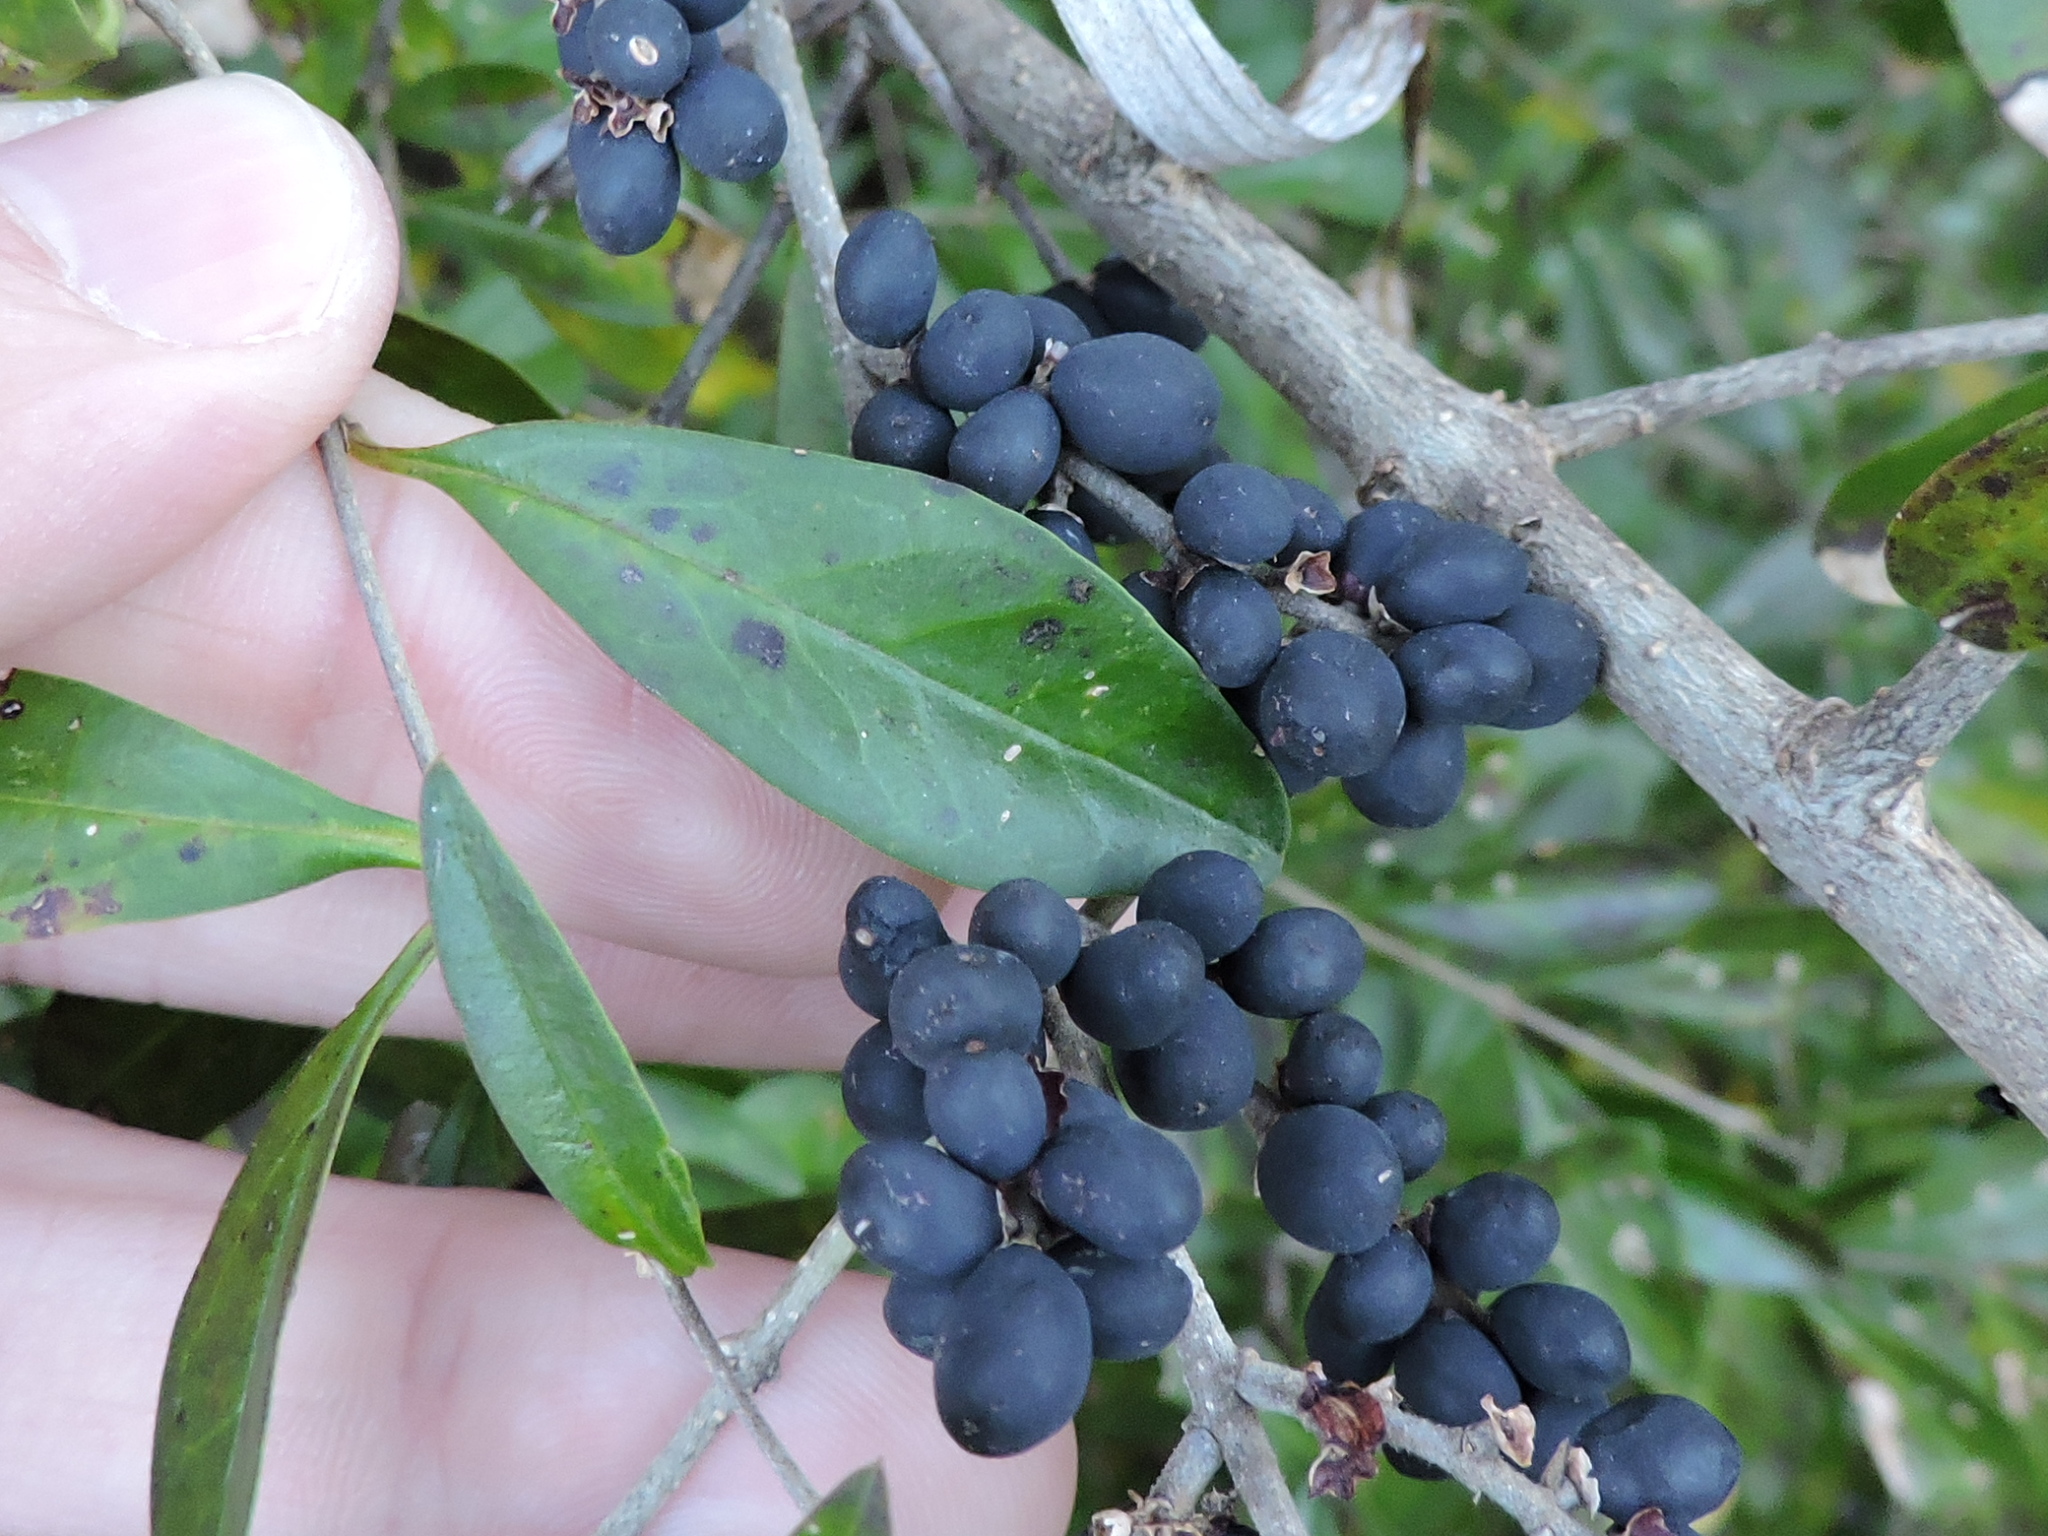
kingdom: Plantae
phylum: Tracheophyta
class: Magnoliopsida
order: Lamiales
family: Oleaceae
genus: Ligustrum
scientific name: Ligustrum quihoui
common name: Waxyleaf privet
